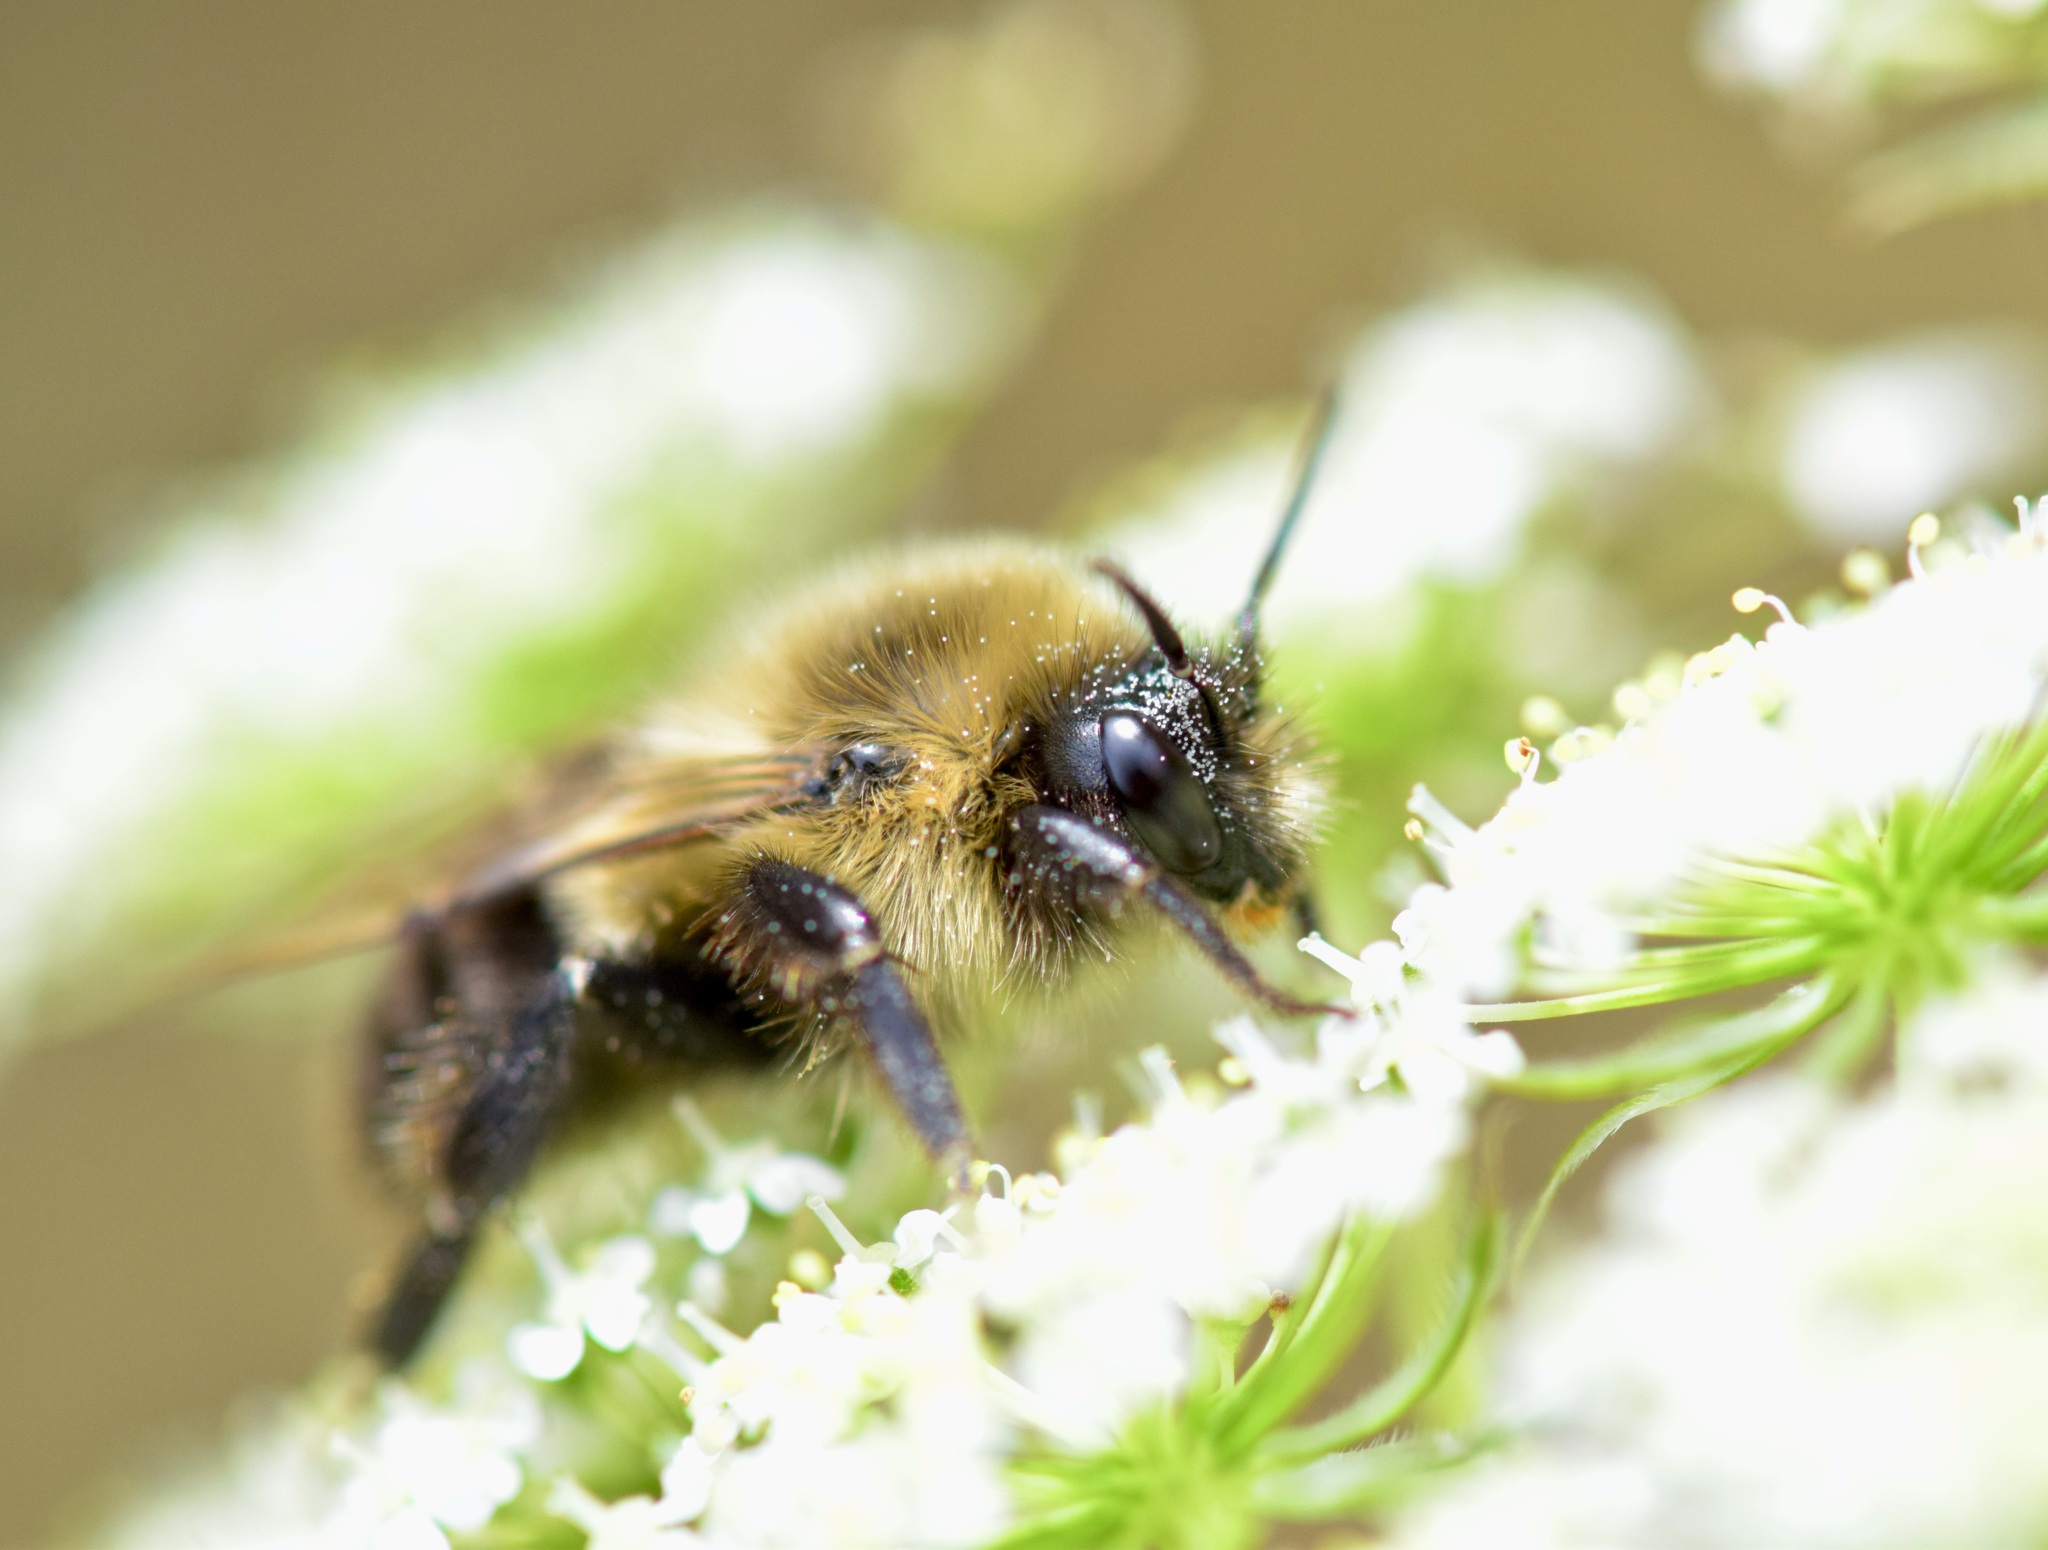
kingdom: Animalia
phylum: Arthropoda
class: Insecta
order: Hymenoptera
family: Apidae
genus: Bombus
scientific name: Bombus impatiens
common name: Common eastern bumble bee
